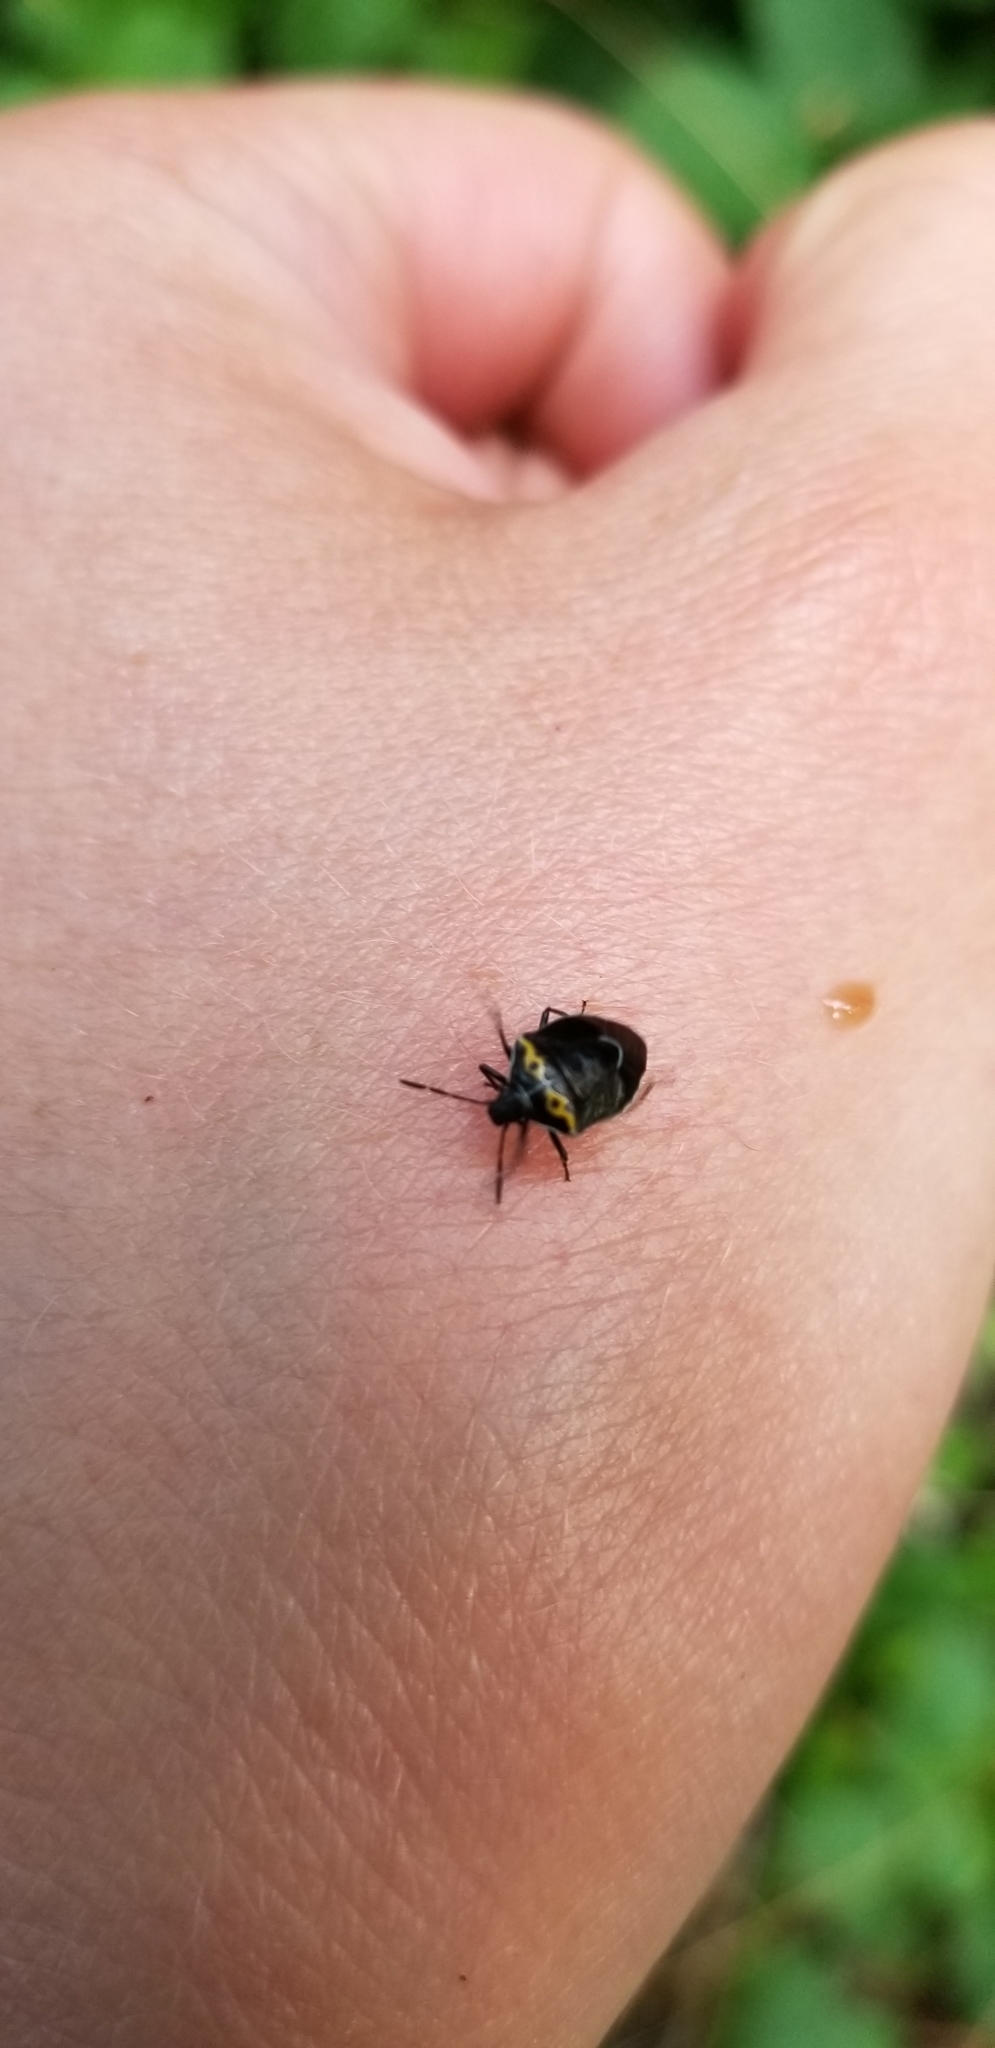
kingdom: Animalia
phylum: Arthropoda
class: Insecta
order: Hemiptera
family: Pentatomidae
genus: Cosmopepla
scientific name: Cosmopepla conspicillaris
